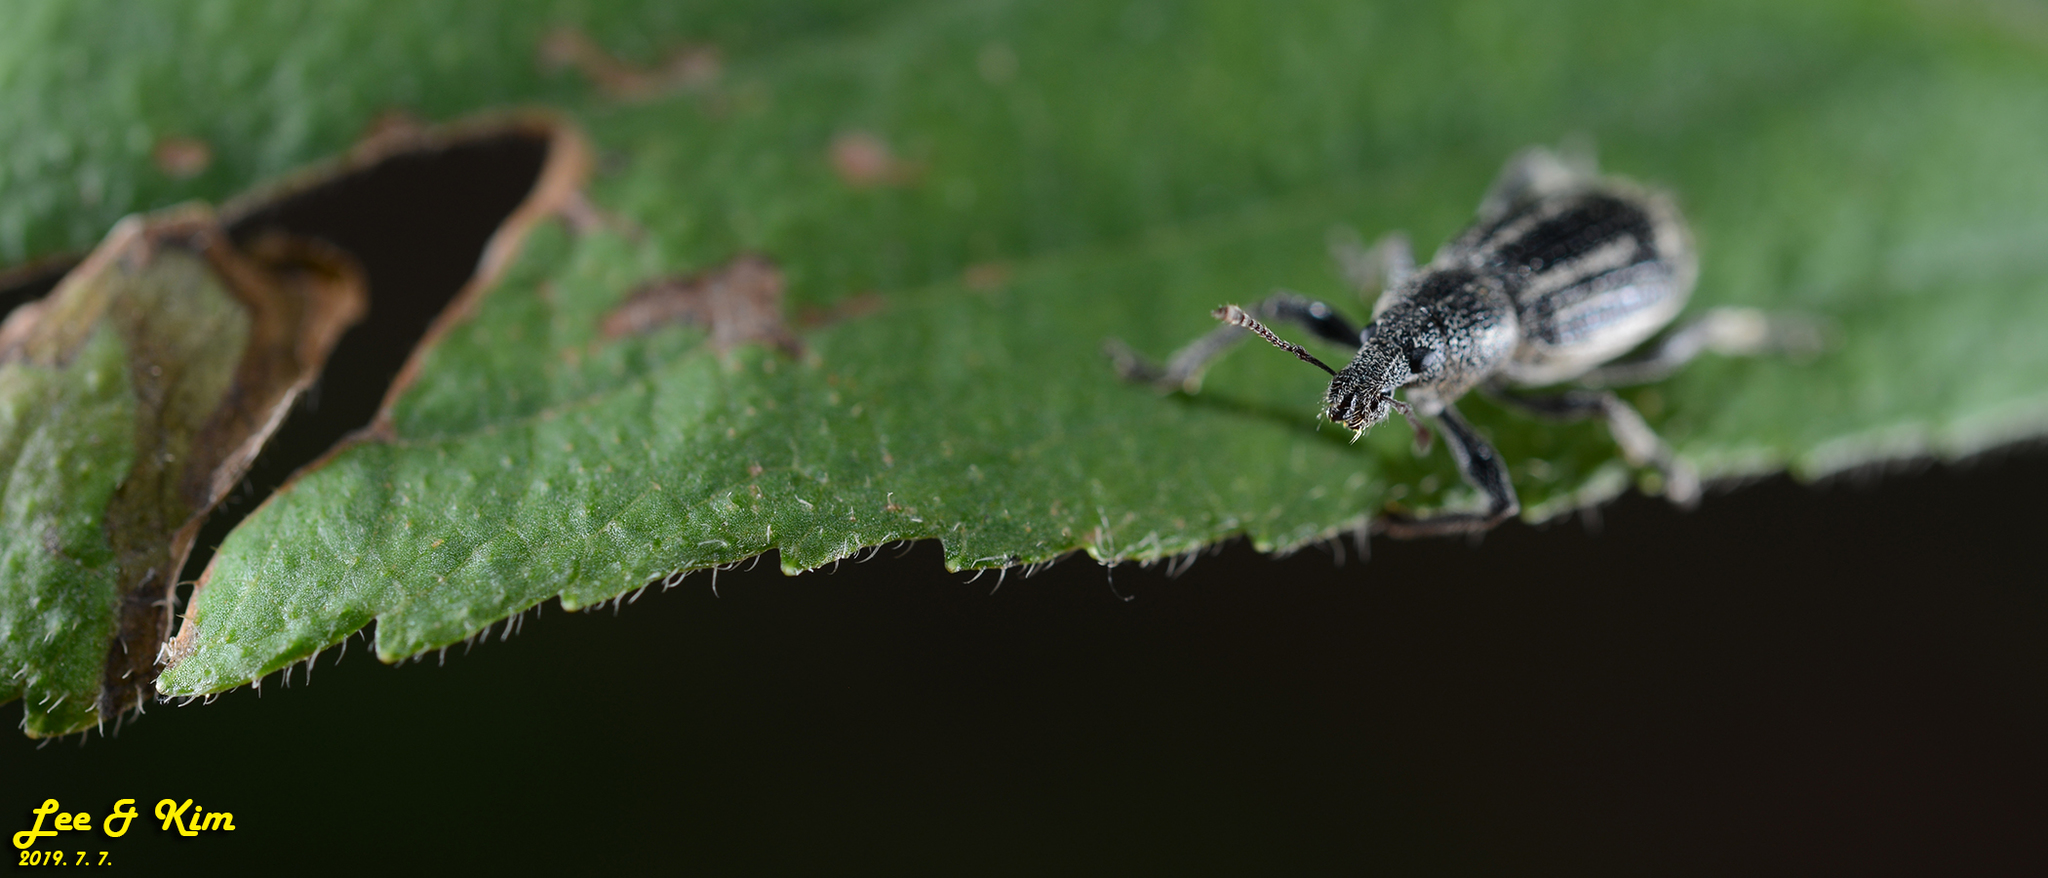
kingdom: Animalia
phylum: Arthropoda
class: Insecta
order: Coleoptera
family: Curculionidae
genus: Enaptorhinus
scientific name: Enaptorhinus granulatus
